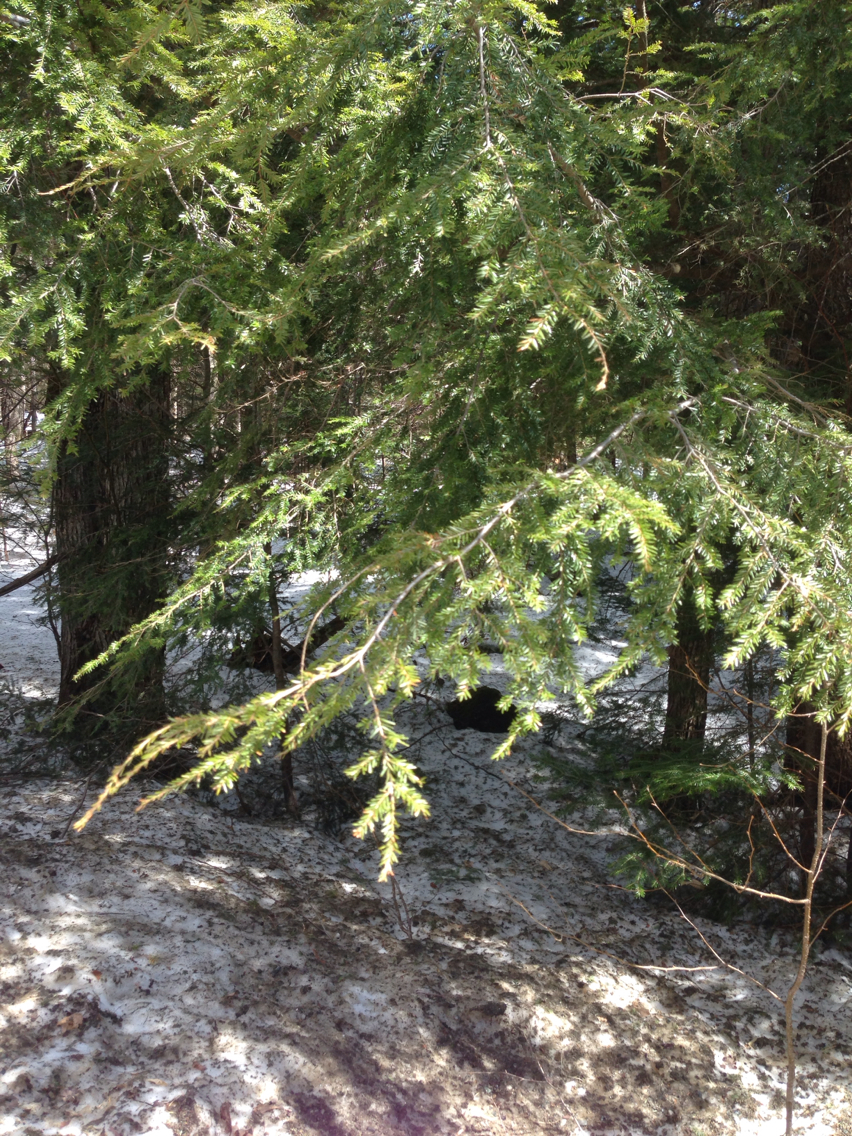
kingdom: Plantae
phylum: Tracheophyta
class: Pinopsida
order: Pinales
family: Pinaceae
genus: Tsuga
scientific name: Tsuga canadensis
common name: Eastern hemlock
